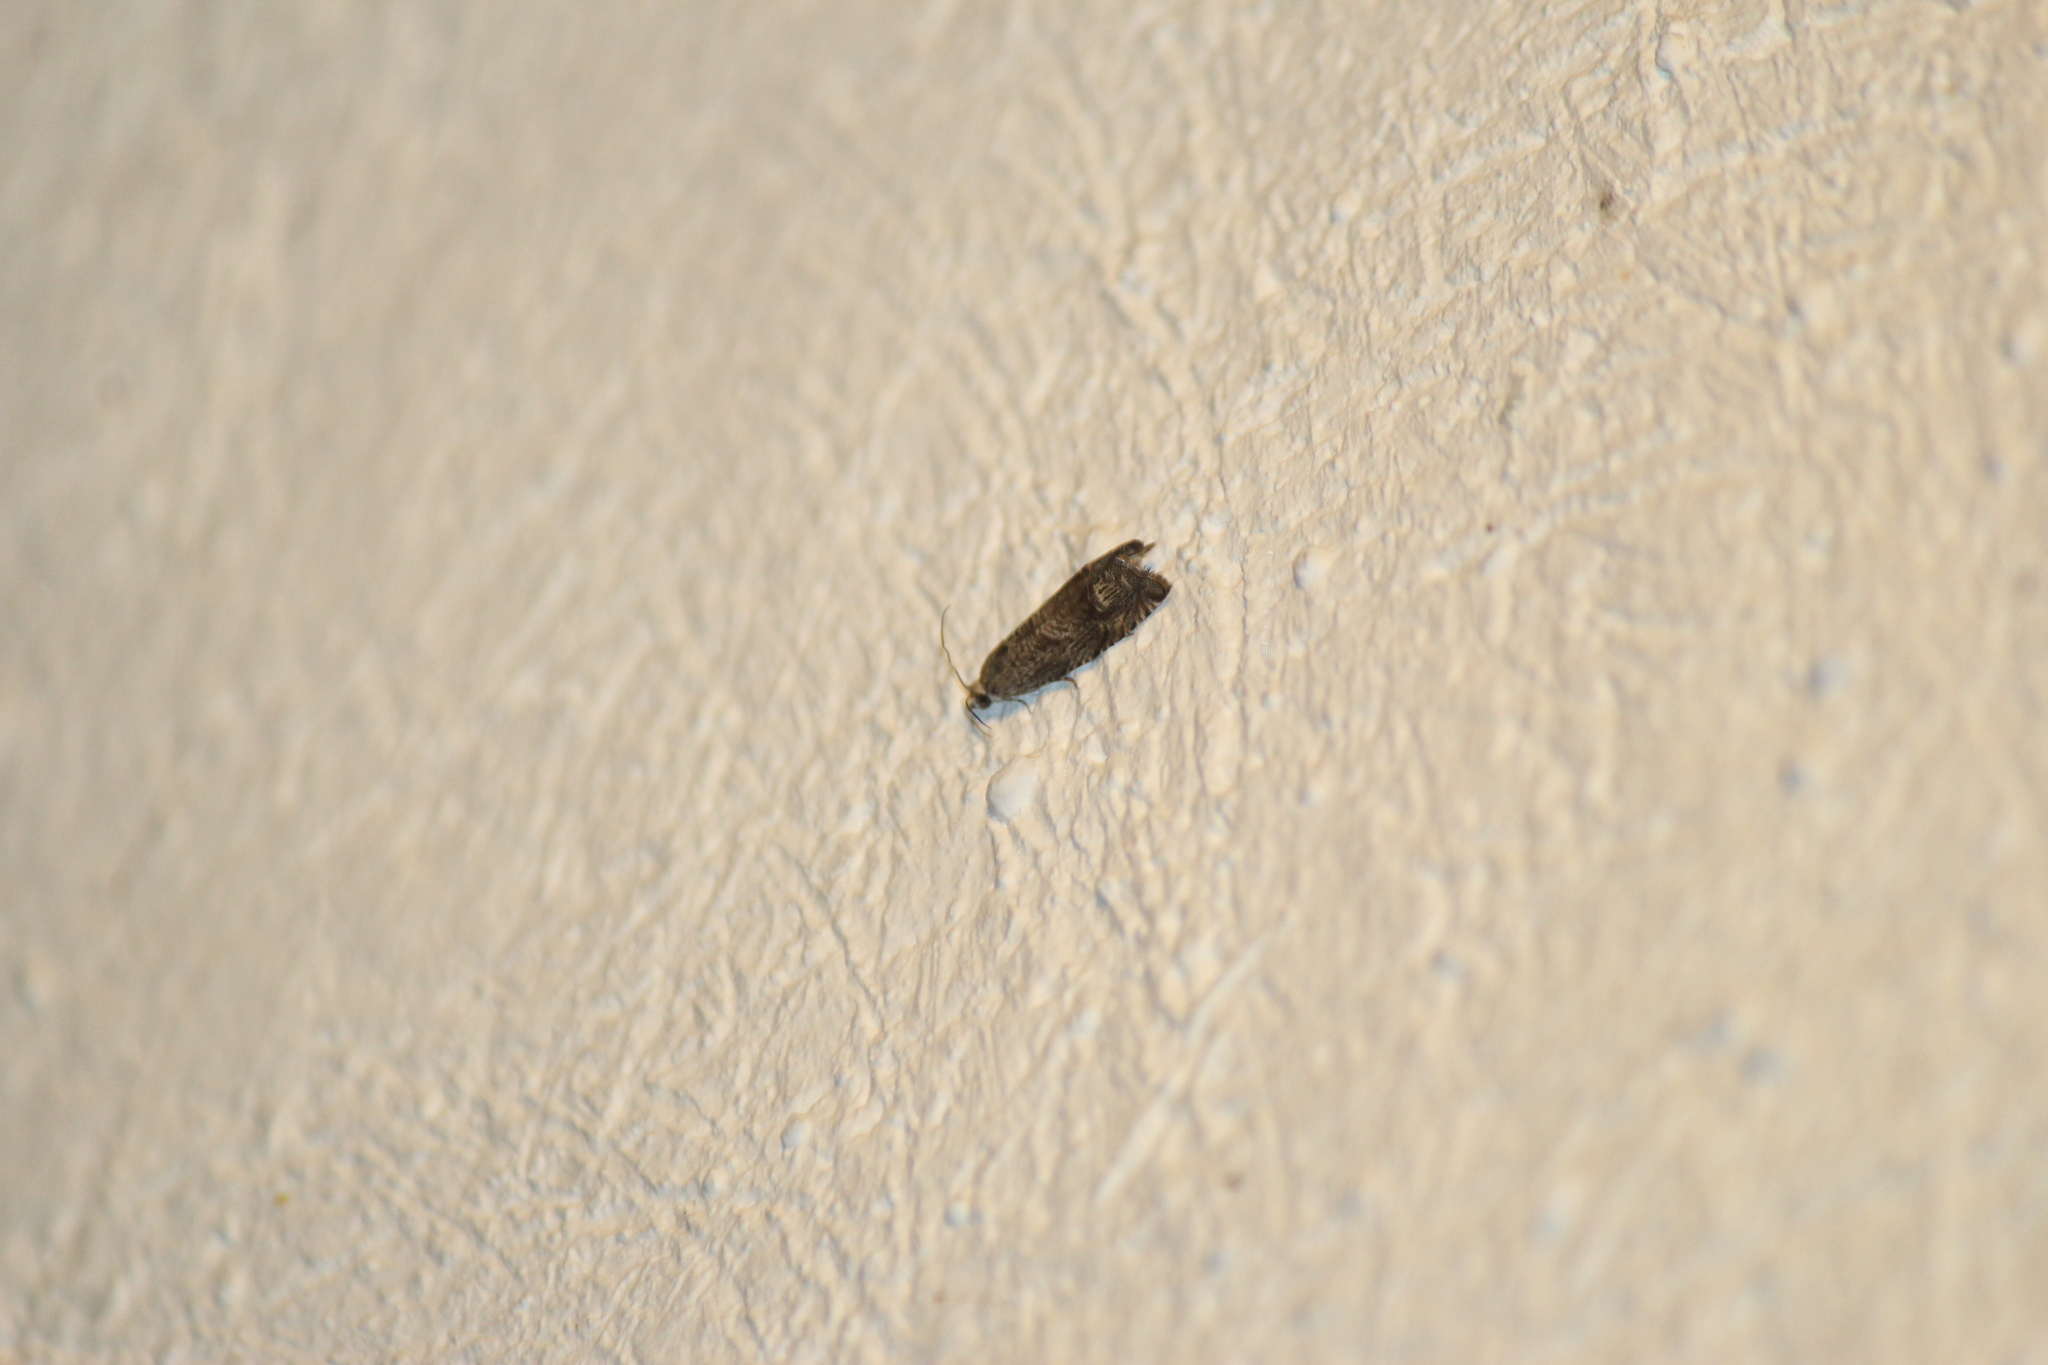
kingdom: Animalia
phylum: Arthropoda
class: Insecta
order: Lepidoptera
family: Tortricidae
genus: Ofatulena
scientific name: Ofatulena duodecemstriata
